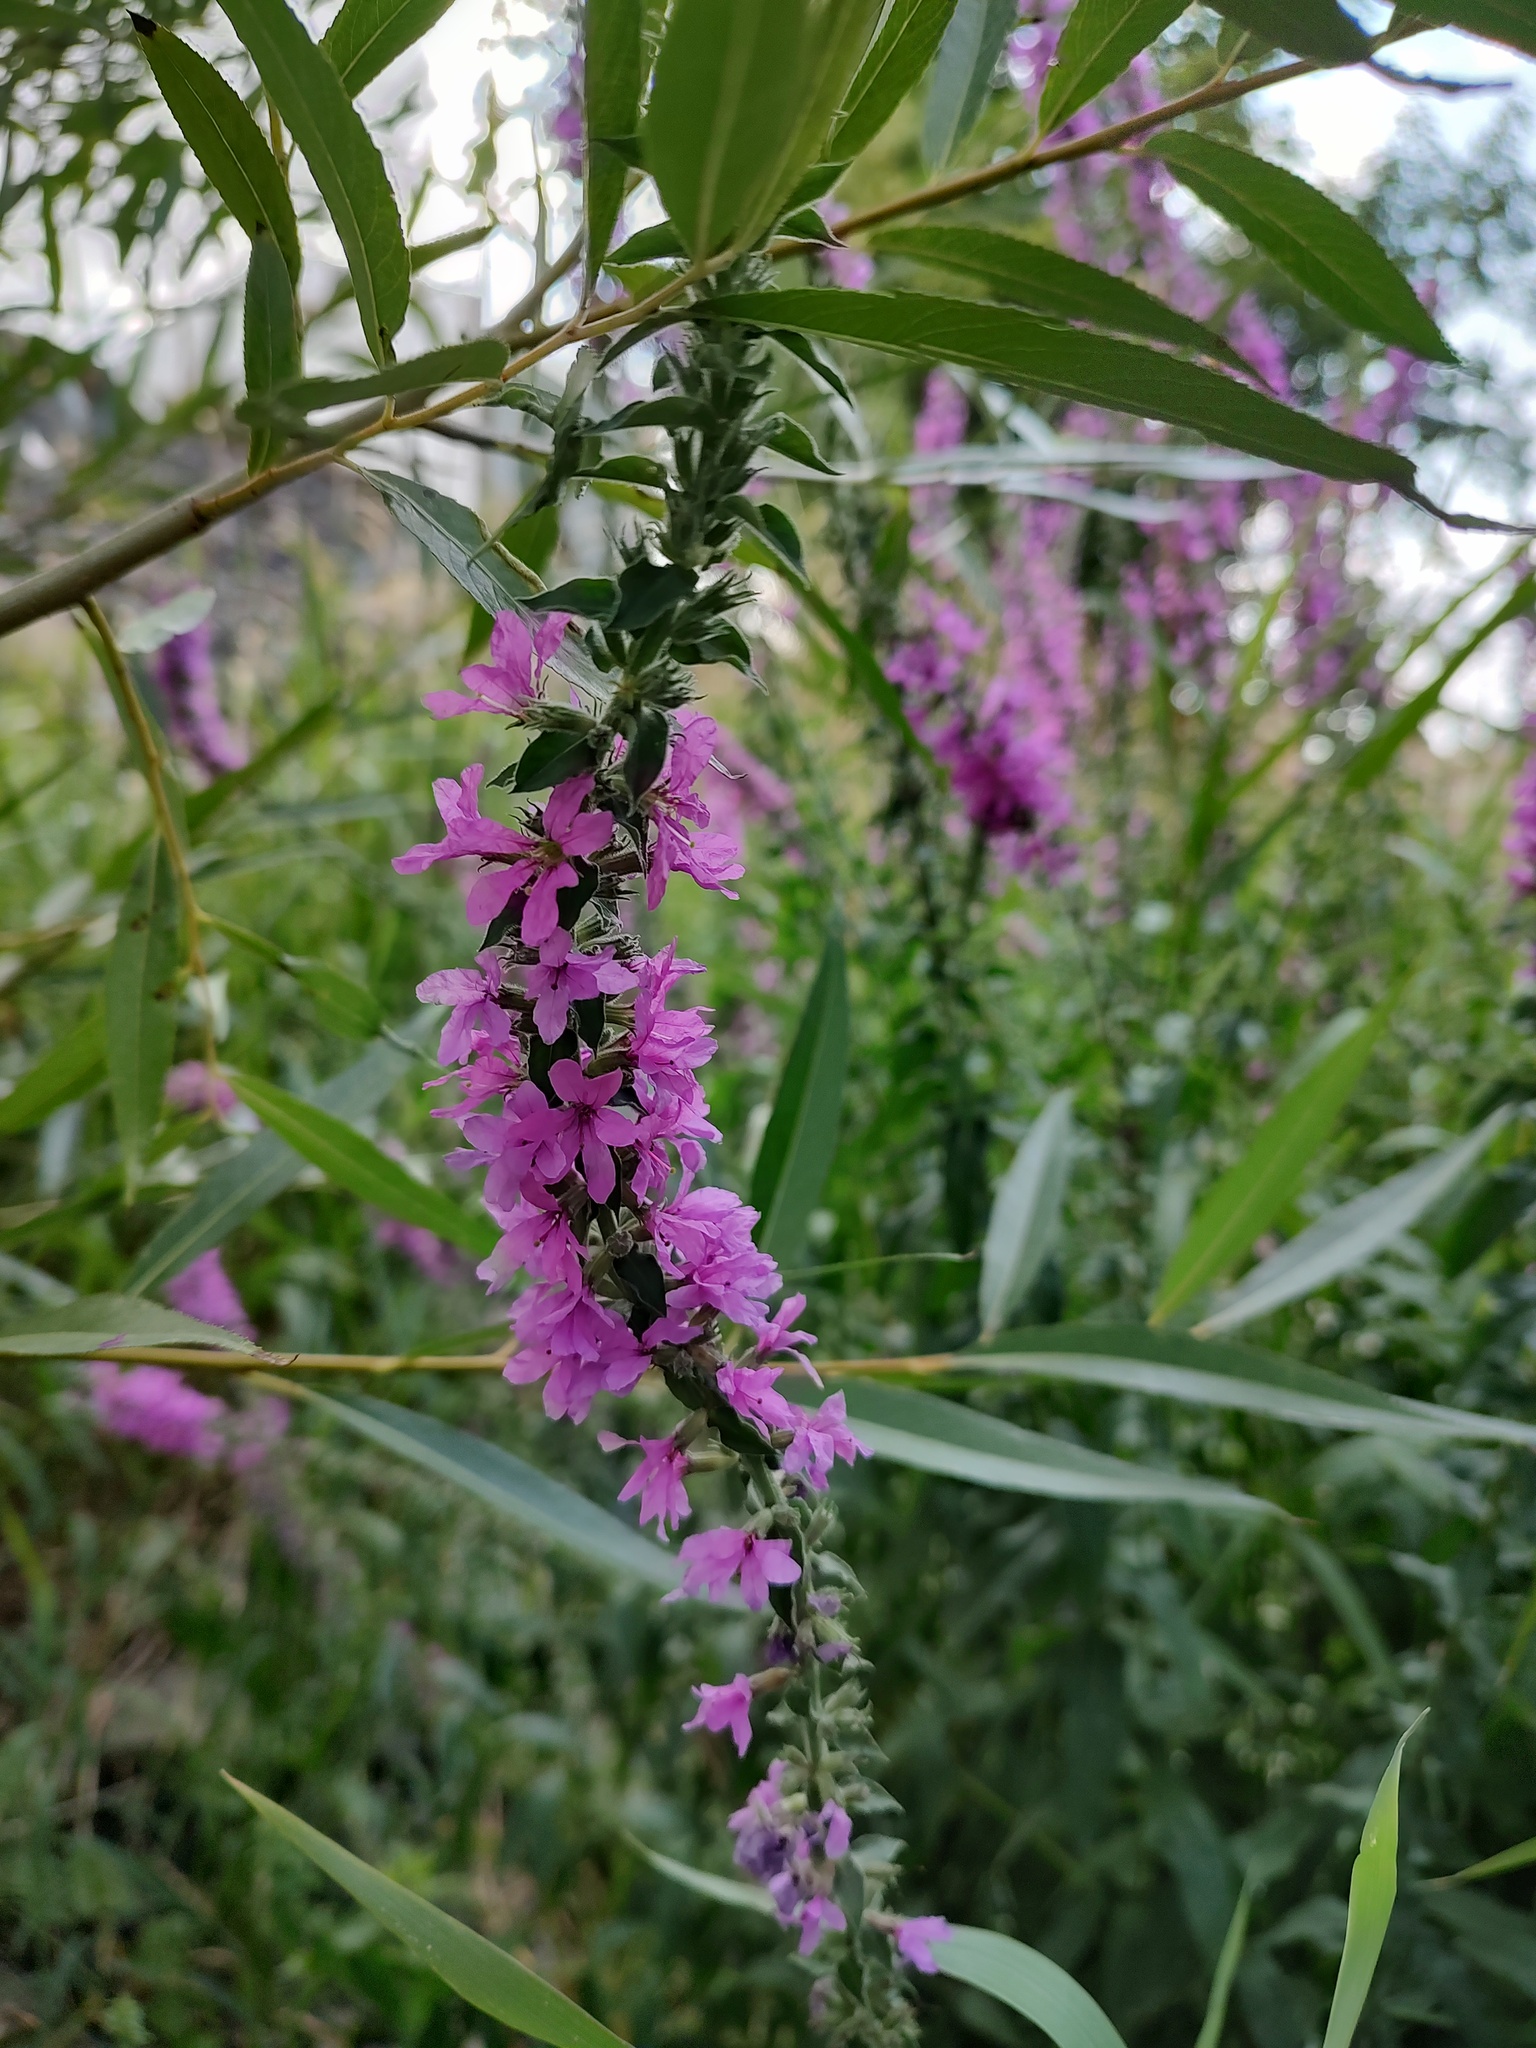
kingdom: Plantae
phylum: Tracheophyta
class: Magnoliopsida
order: Myrtales
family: Lythraceae
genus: Lythrum
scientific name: Lythrum salicaria
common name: Purple loosestrife
